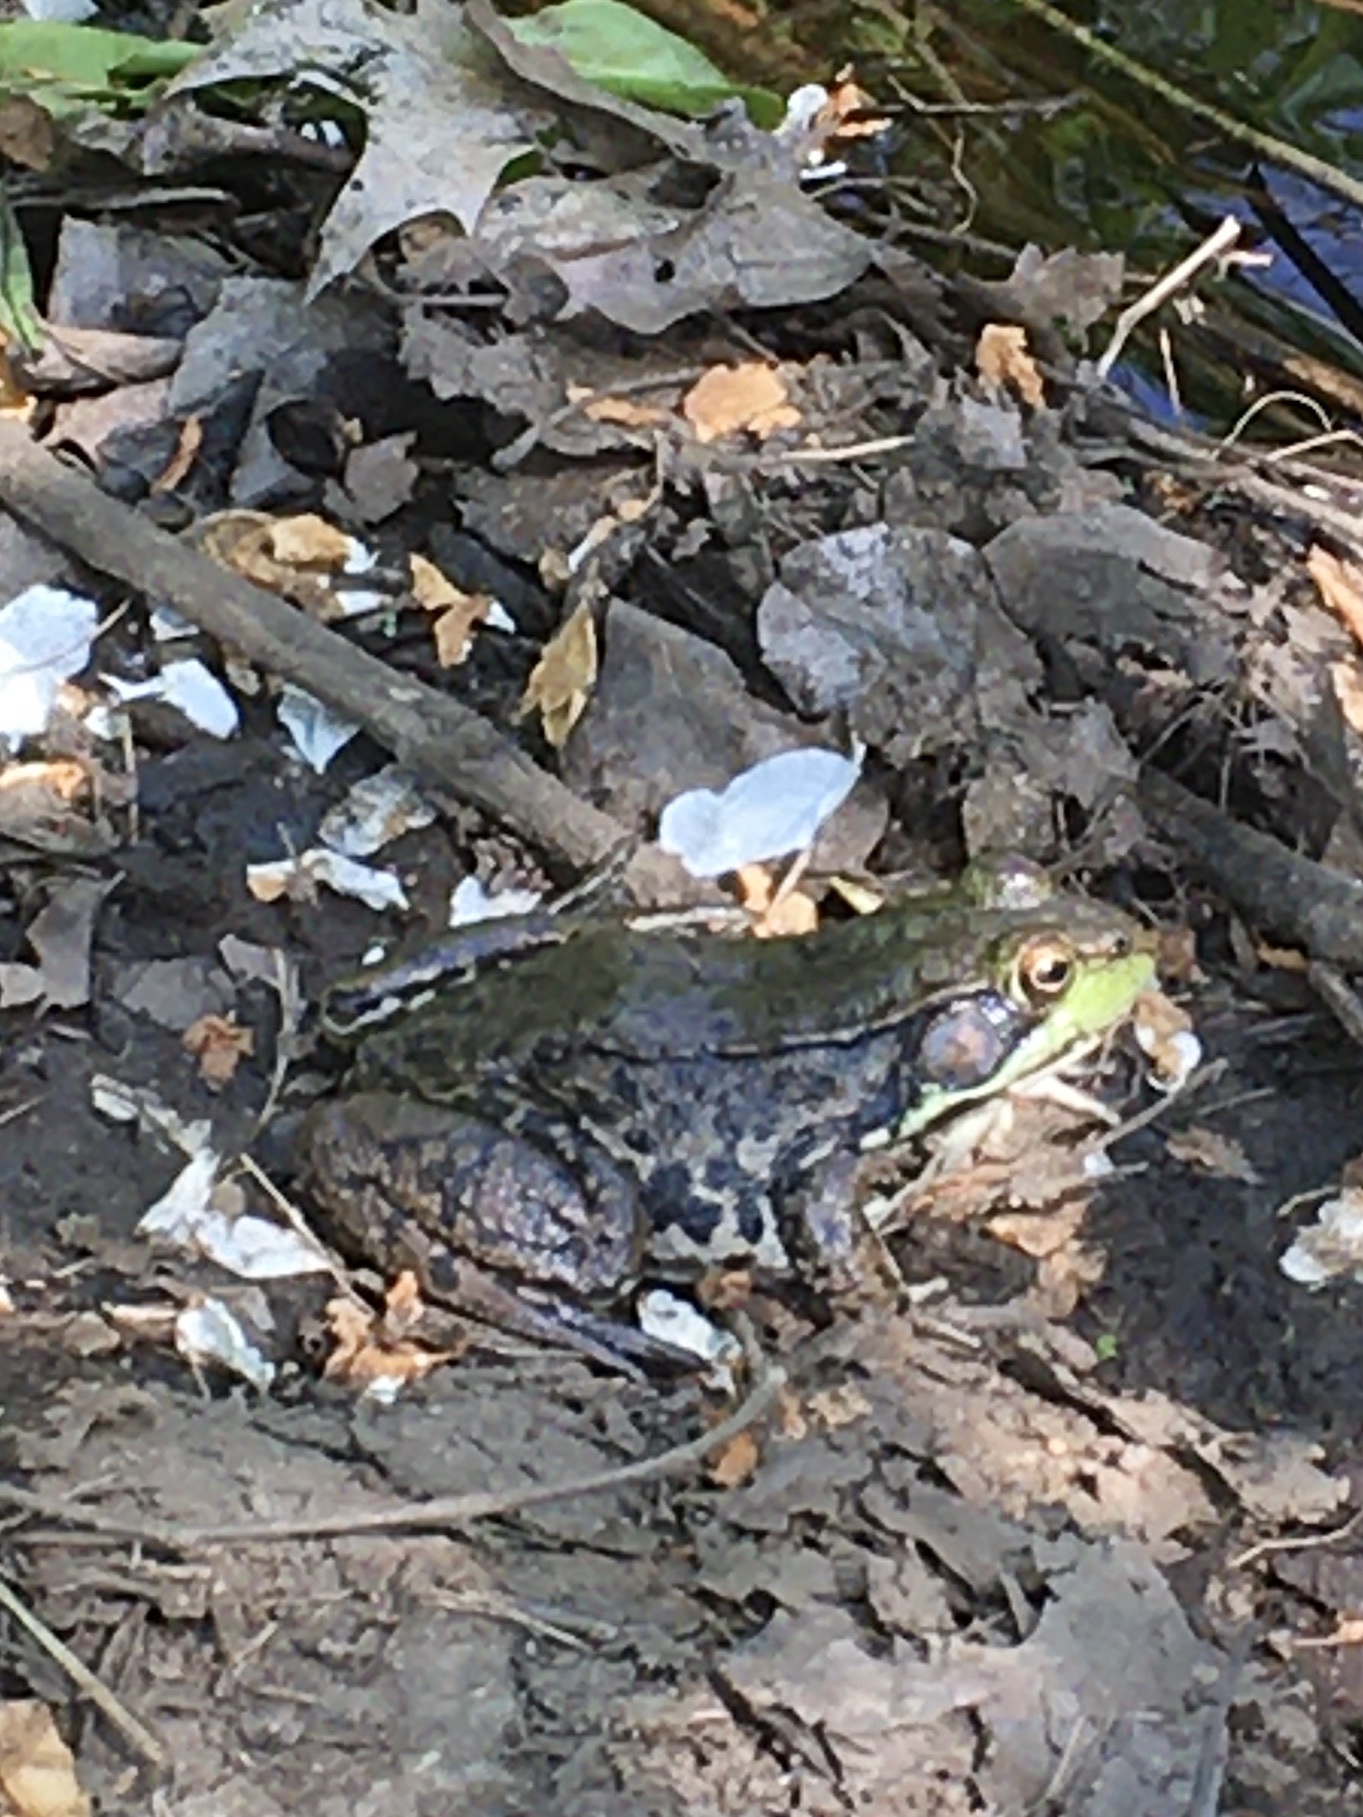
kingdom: Animalia
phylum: Chordata
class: Amphibia
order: Anura
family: Ranidae
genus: Lithobates
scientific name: Lithobates clamitans
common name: Green frog
